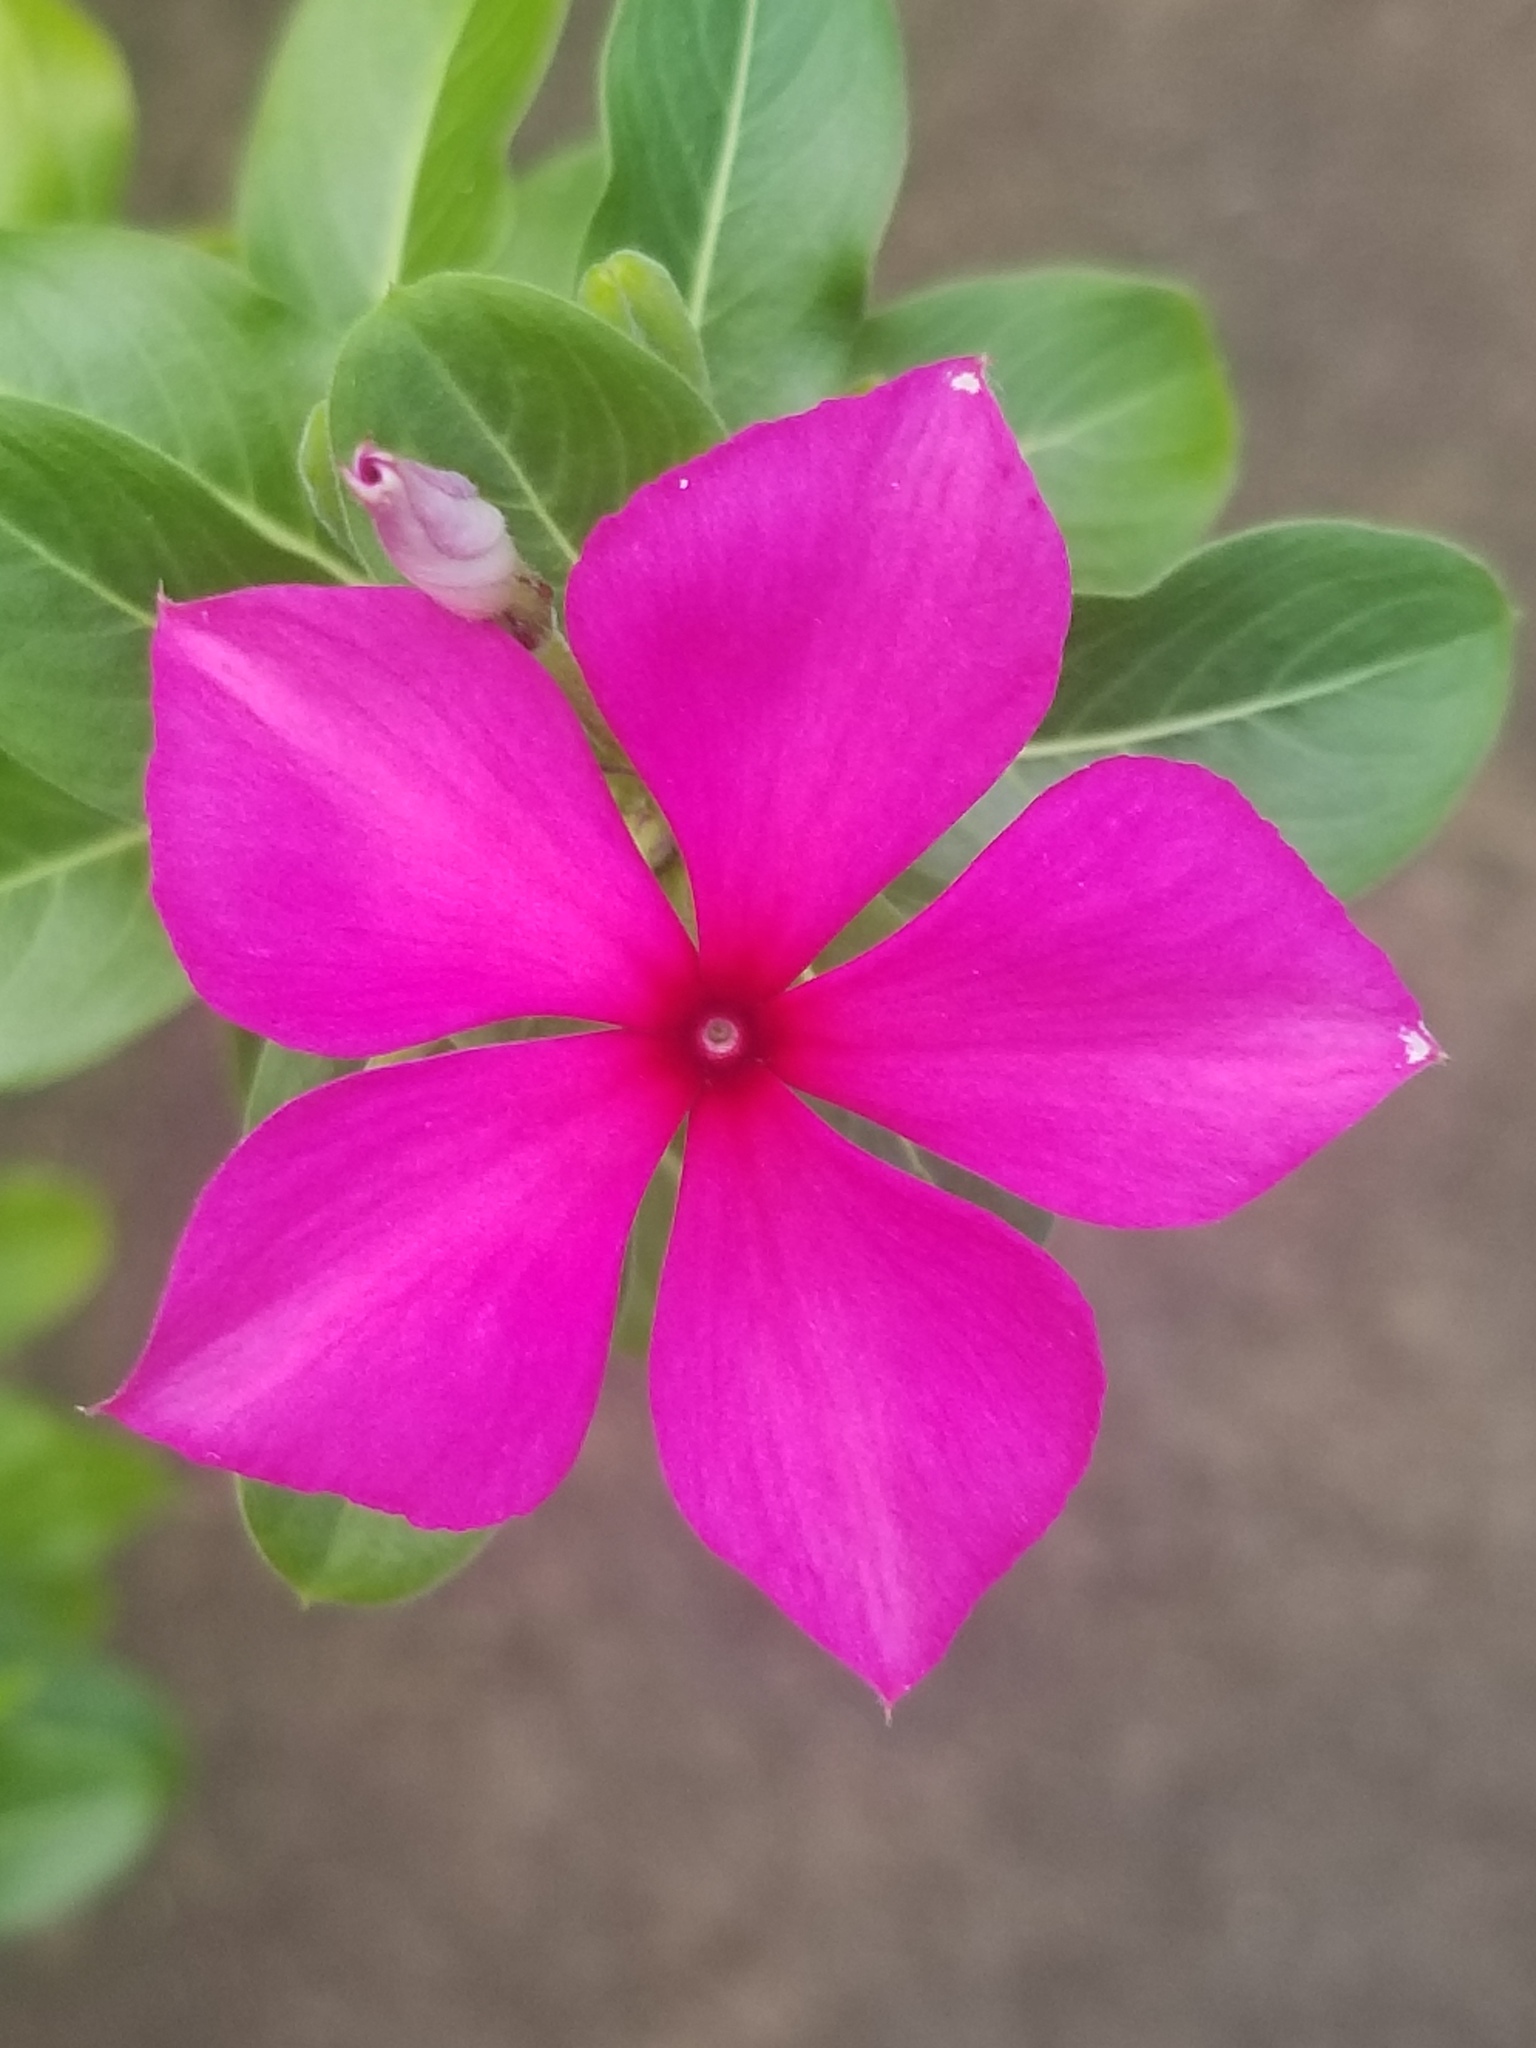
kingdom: Plantae
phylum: Tracheophyta
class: Magnoliopsida
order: Gentianales
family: Apocynaceae
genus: Catharanthus
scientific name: Catharanthus roseus
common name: Madagascar periwinkle
